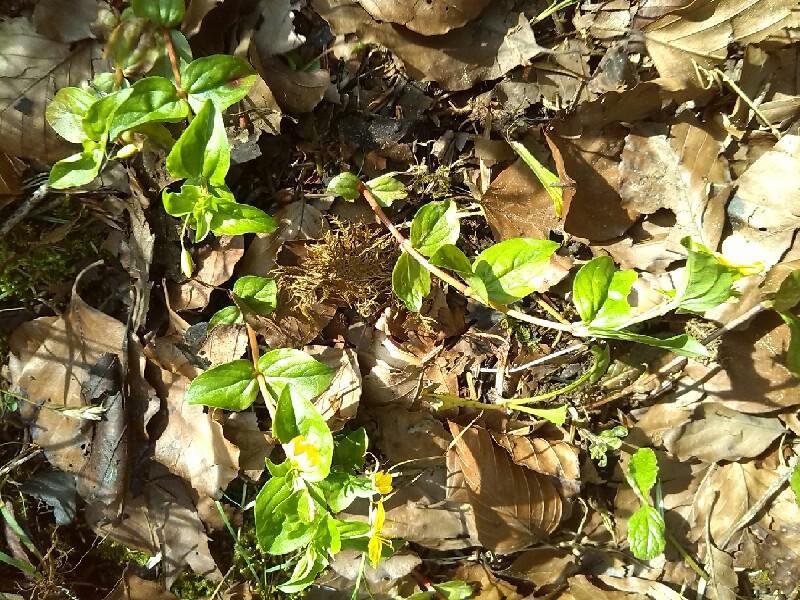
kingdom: Plantae
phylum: Tracheophyta
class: Magnoliopsida
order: Ericales
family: Primulaceae
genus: Lysimachia
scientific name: Lysimachia nemorum
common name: Yellow pimpernel
